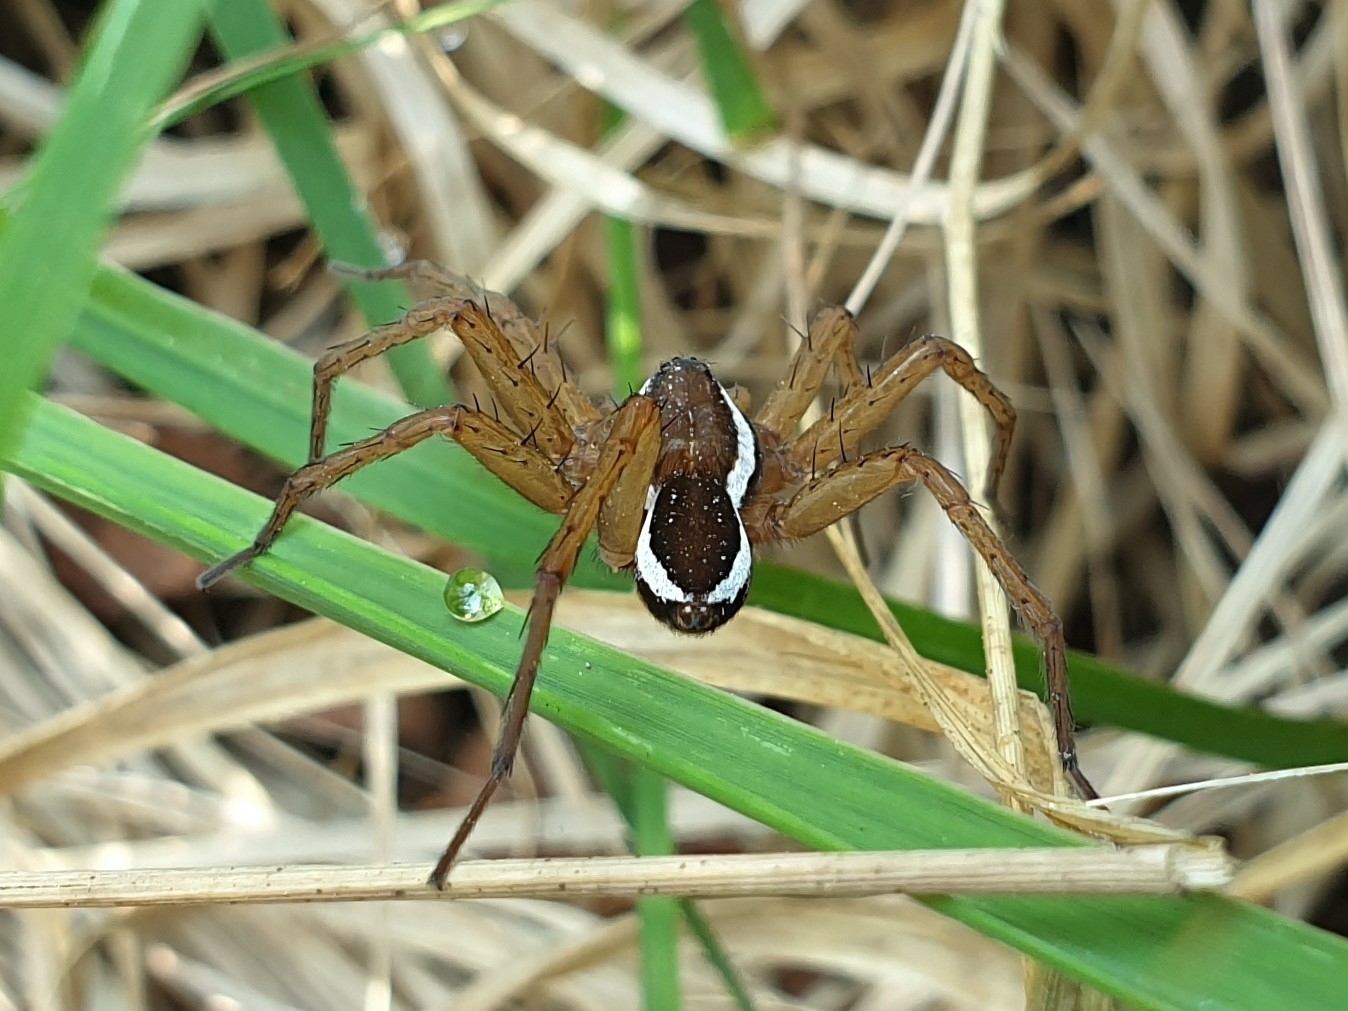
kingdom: Animalia
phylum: Arthropoda
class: Arachnida
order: Araneae
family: Pisauridae
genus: Dolomedes
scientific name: Dolomedes fimbriatus
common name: Raft spider
